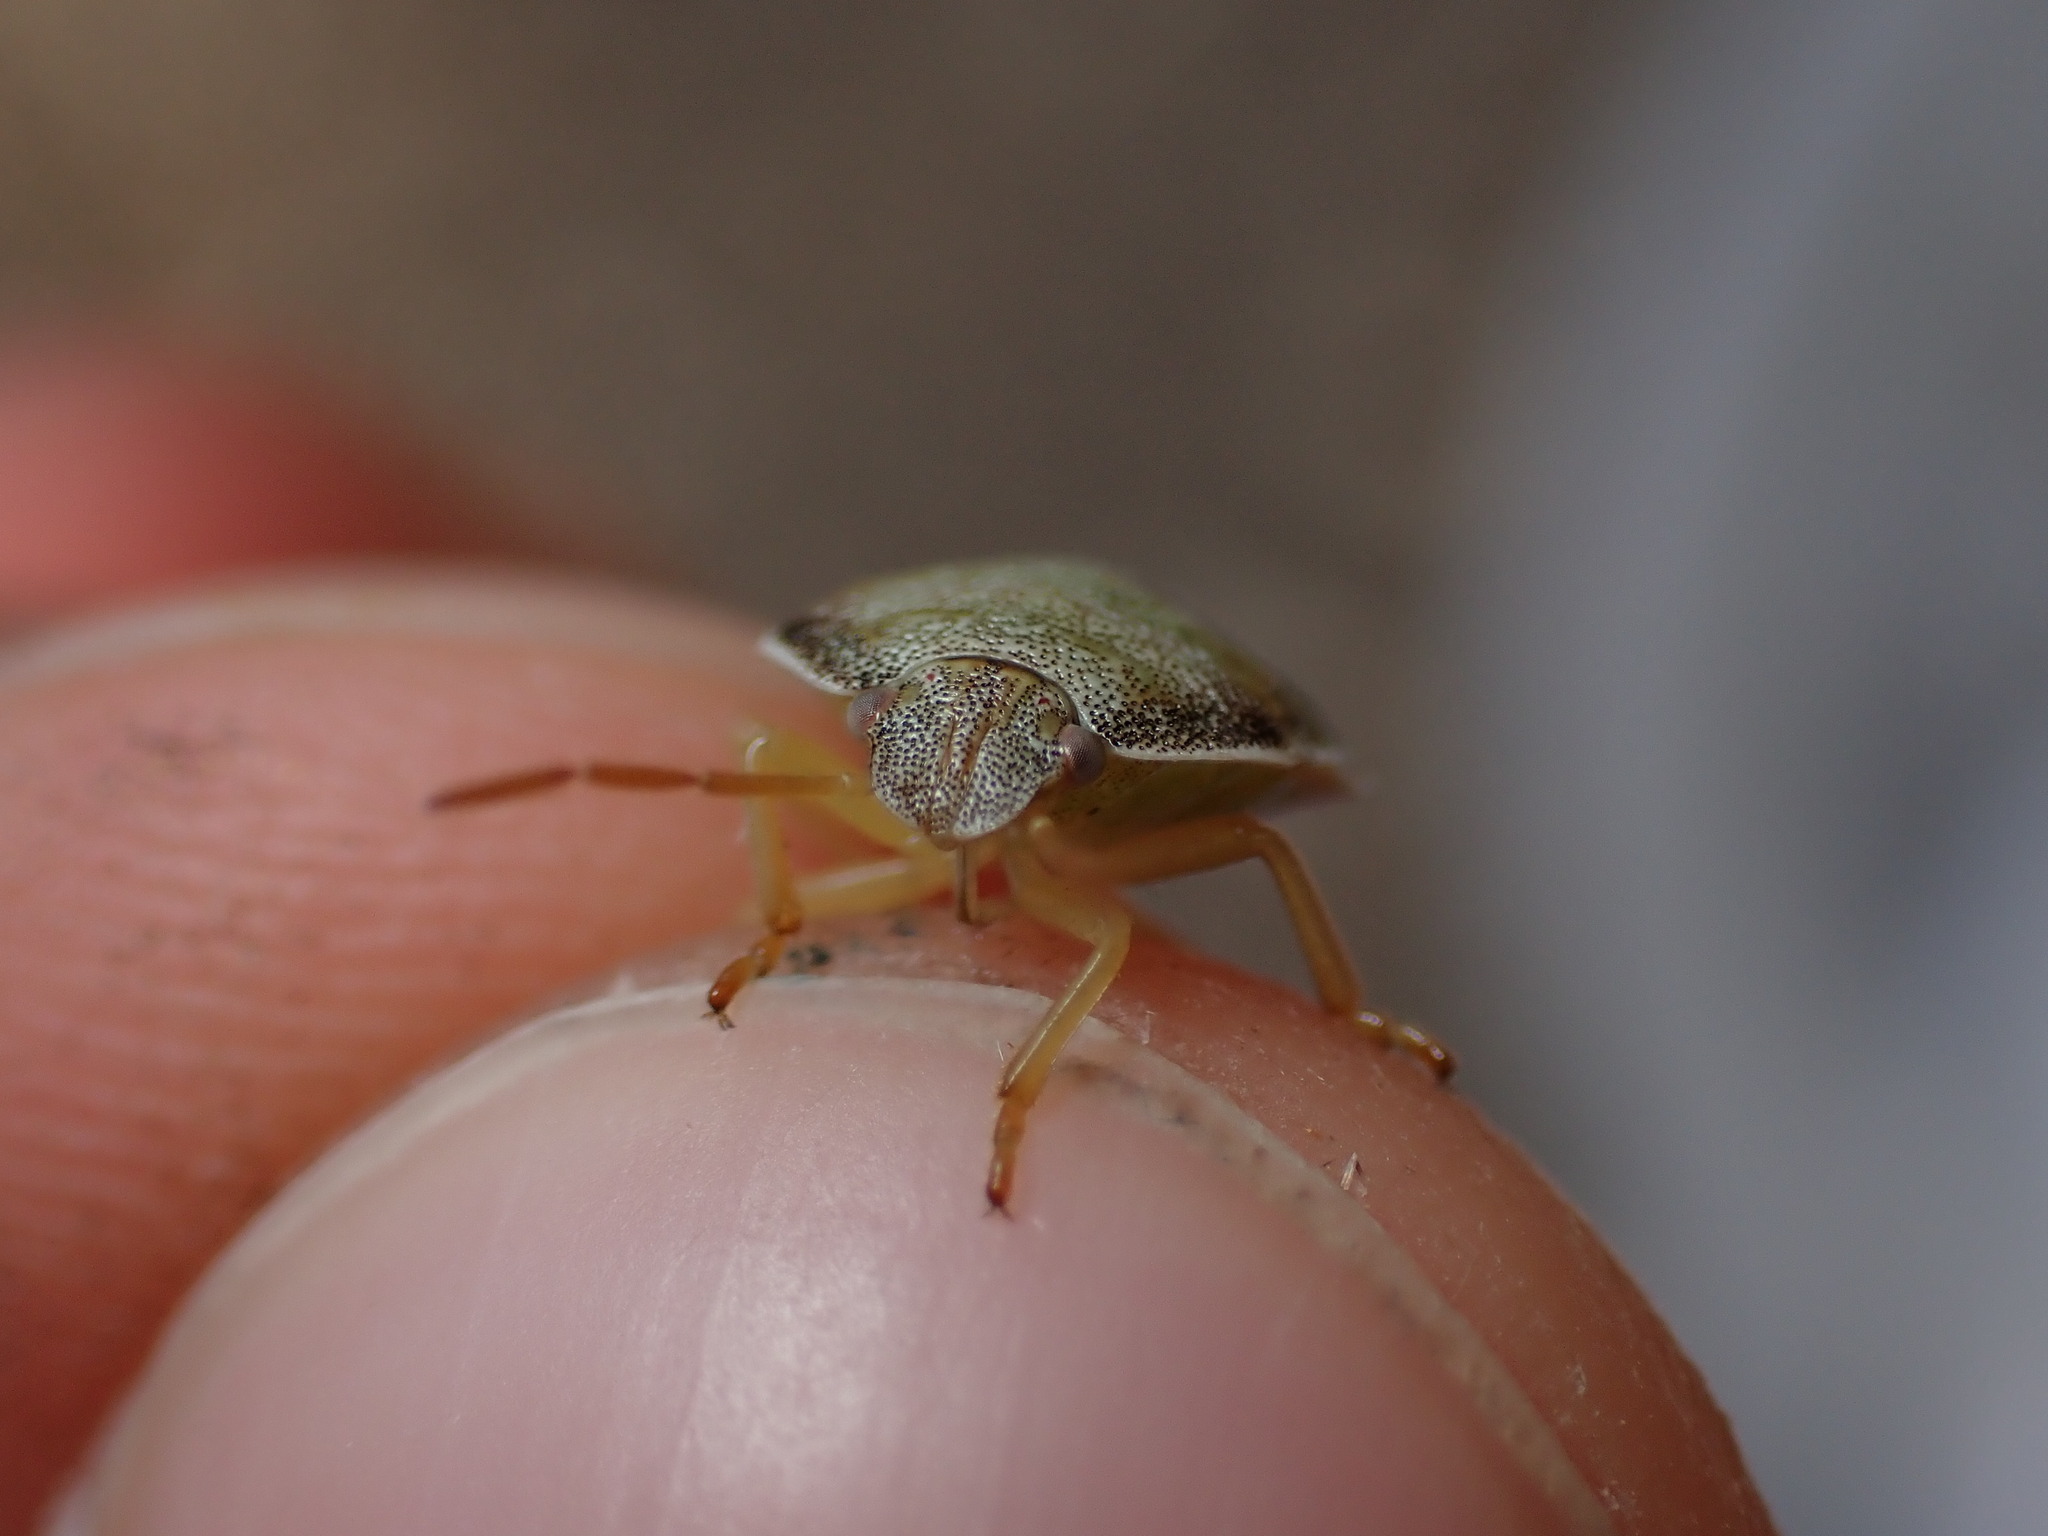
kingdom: Animalia
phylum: Arthropoda
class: Insecta
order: Hemiptera
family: Pentatomidae
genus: Piezodorus
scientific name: Piezodorus lituratus
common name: Stink bug
